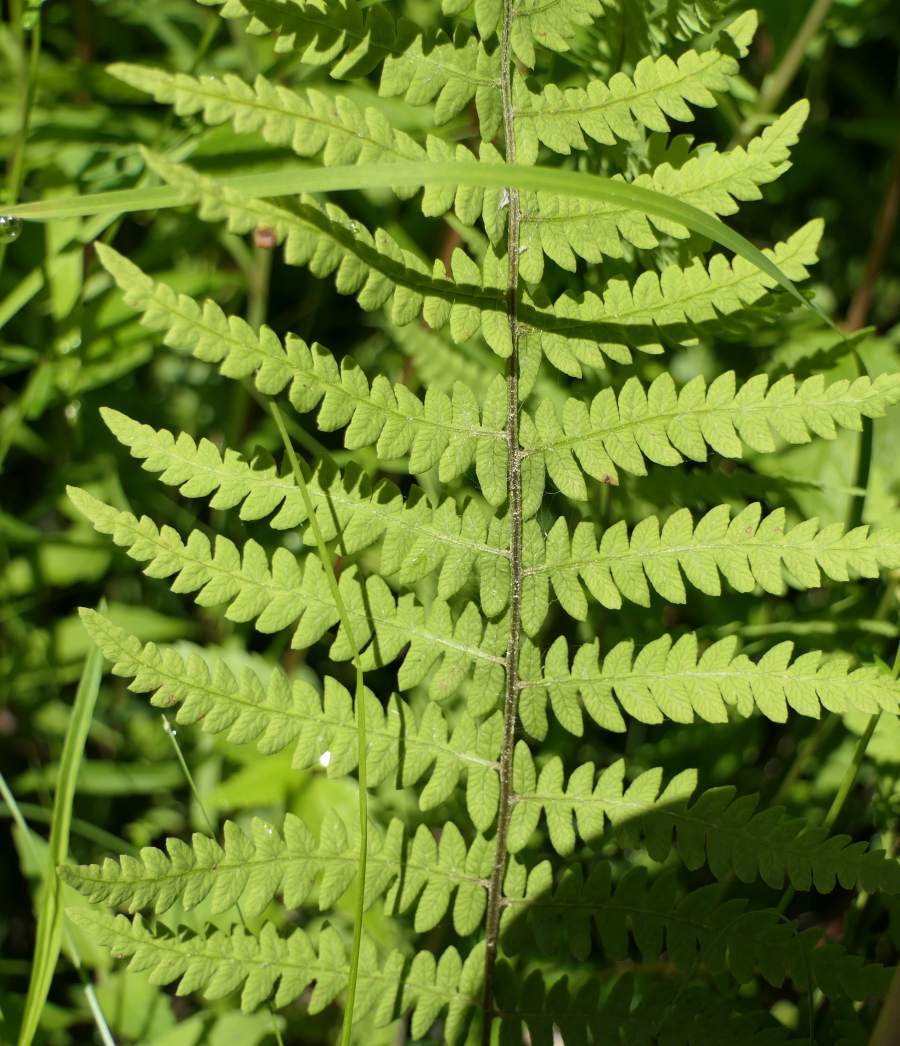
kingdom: Plantae
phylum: Tracheophyta
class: Polypodiopsida
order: Polypodiales
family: Thelypteridaceae
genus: Thelypteris
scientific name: Thelypteris palustris
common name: Marsh fern
